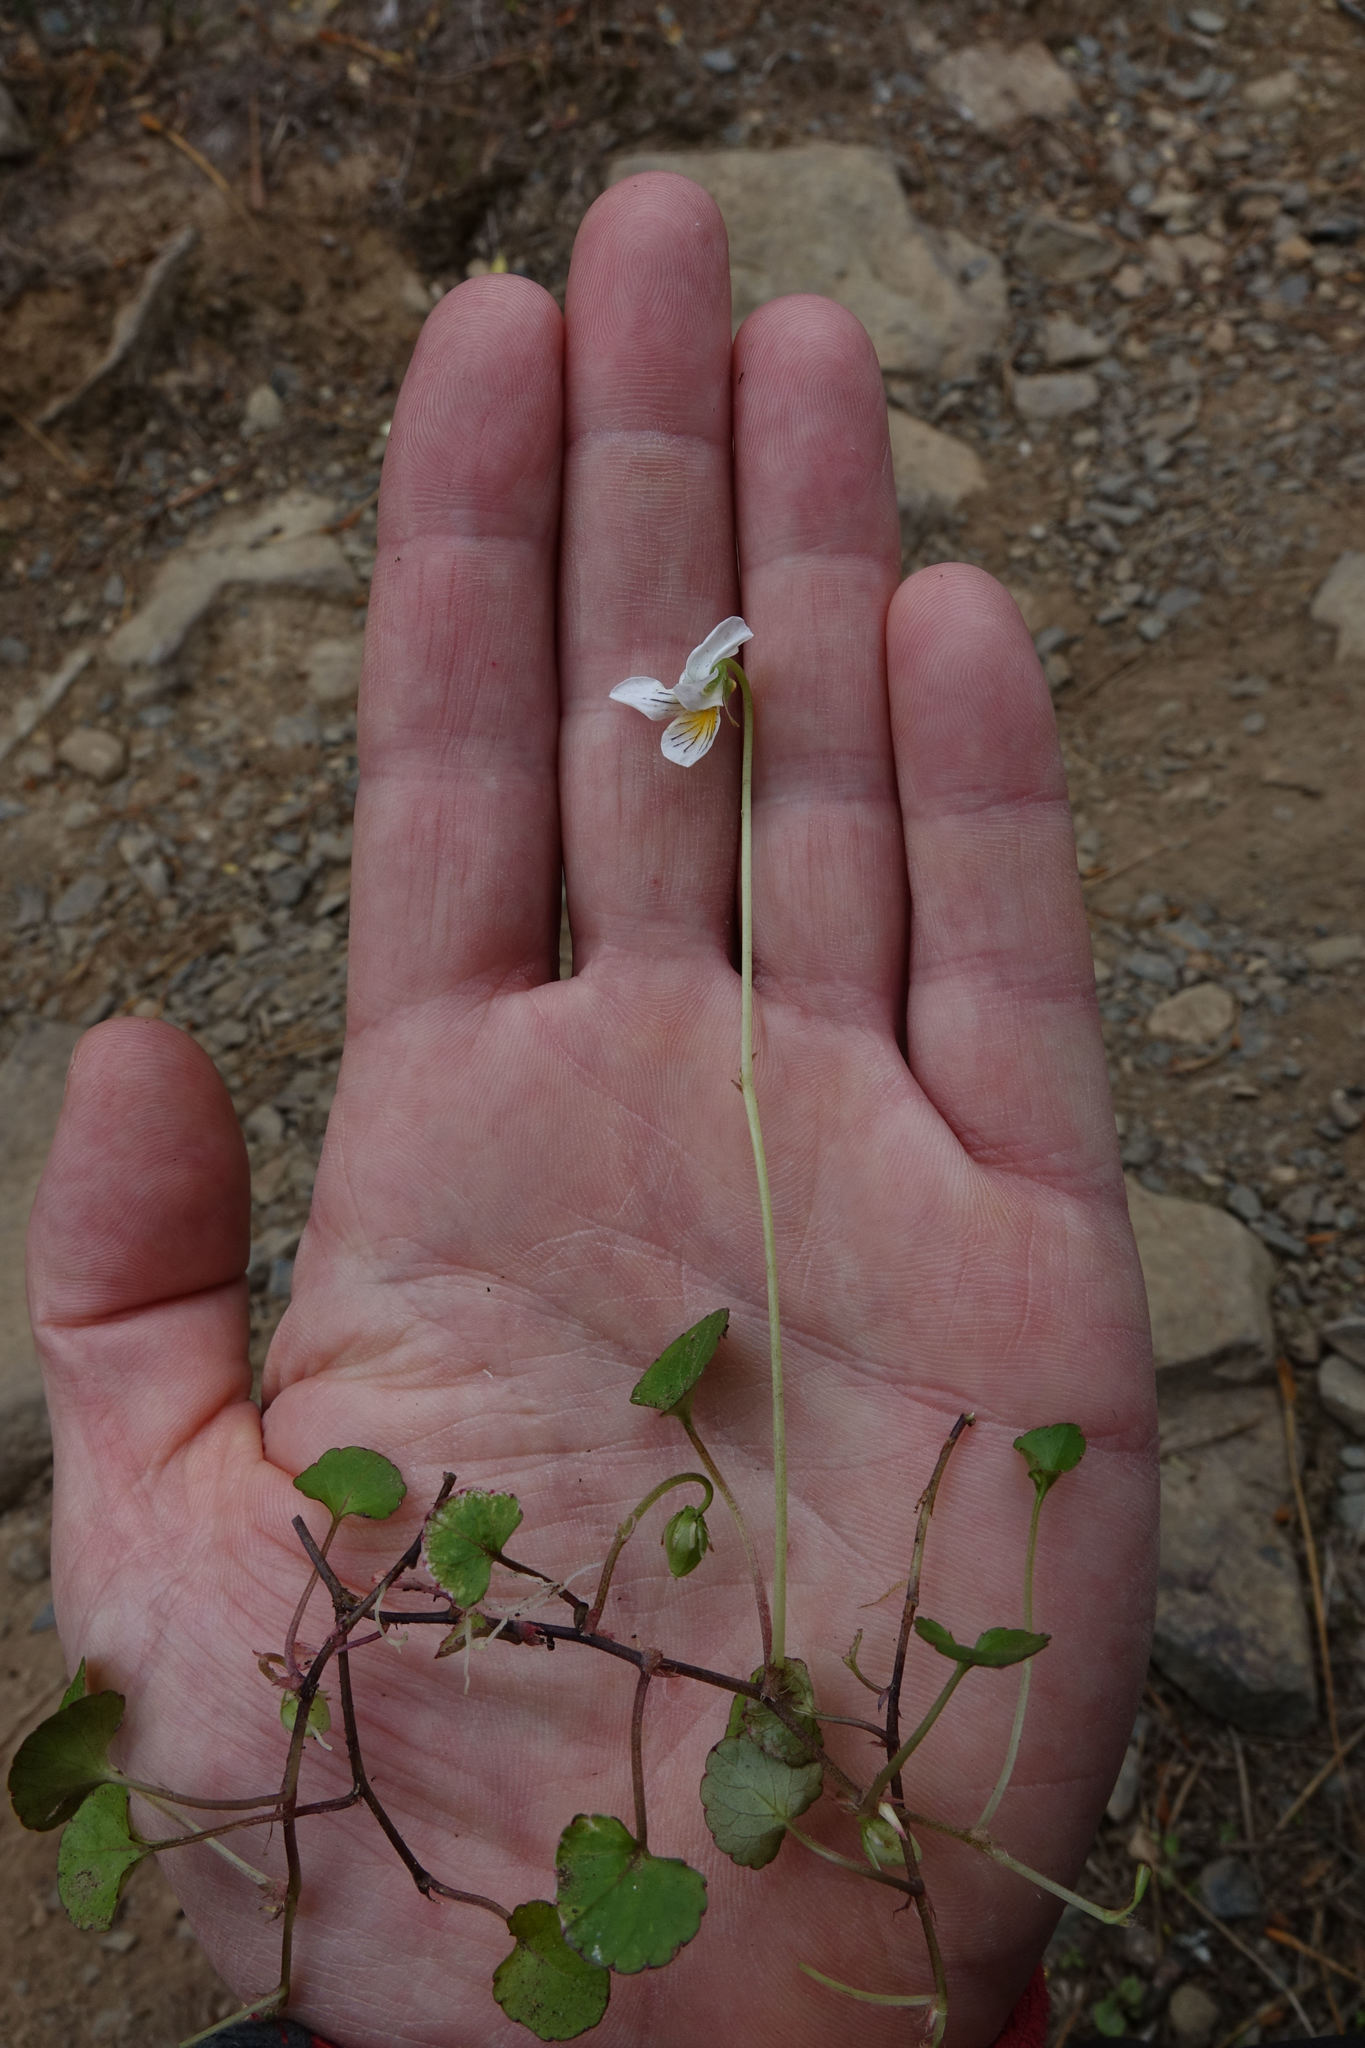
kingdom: Plantae
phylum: Tracheophyta
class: Magnoliopsida
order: Malpighiales
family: Violaceae
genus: Viola
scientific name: Viola filicaulis
